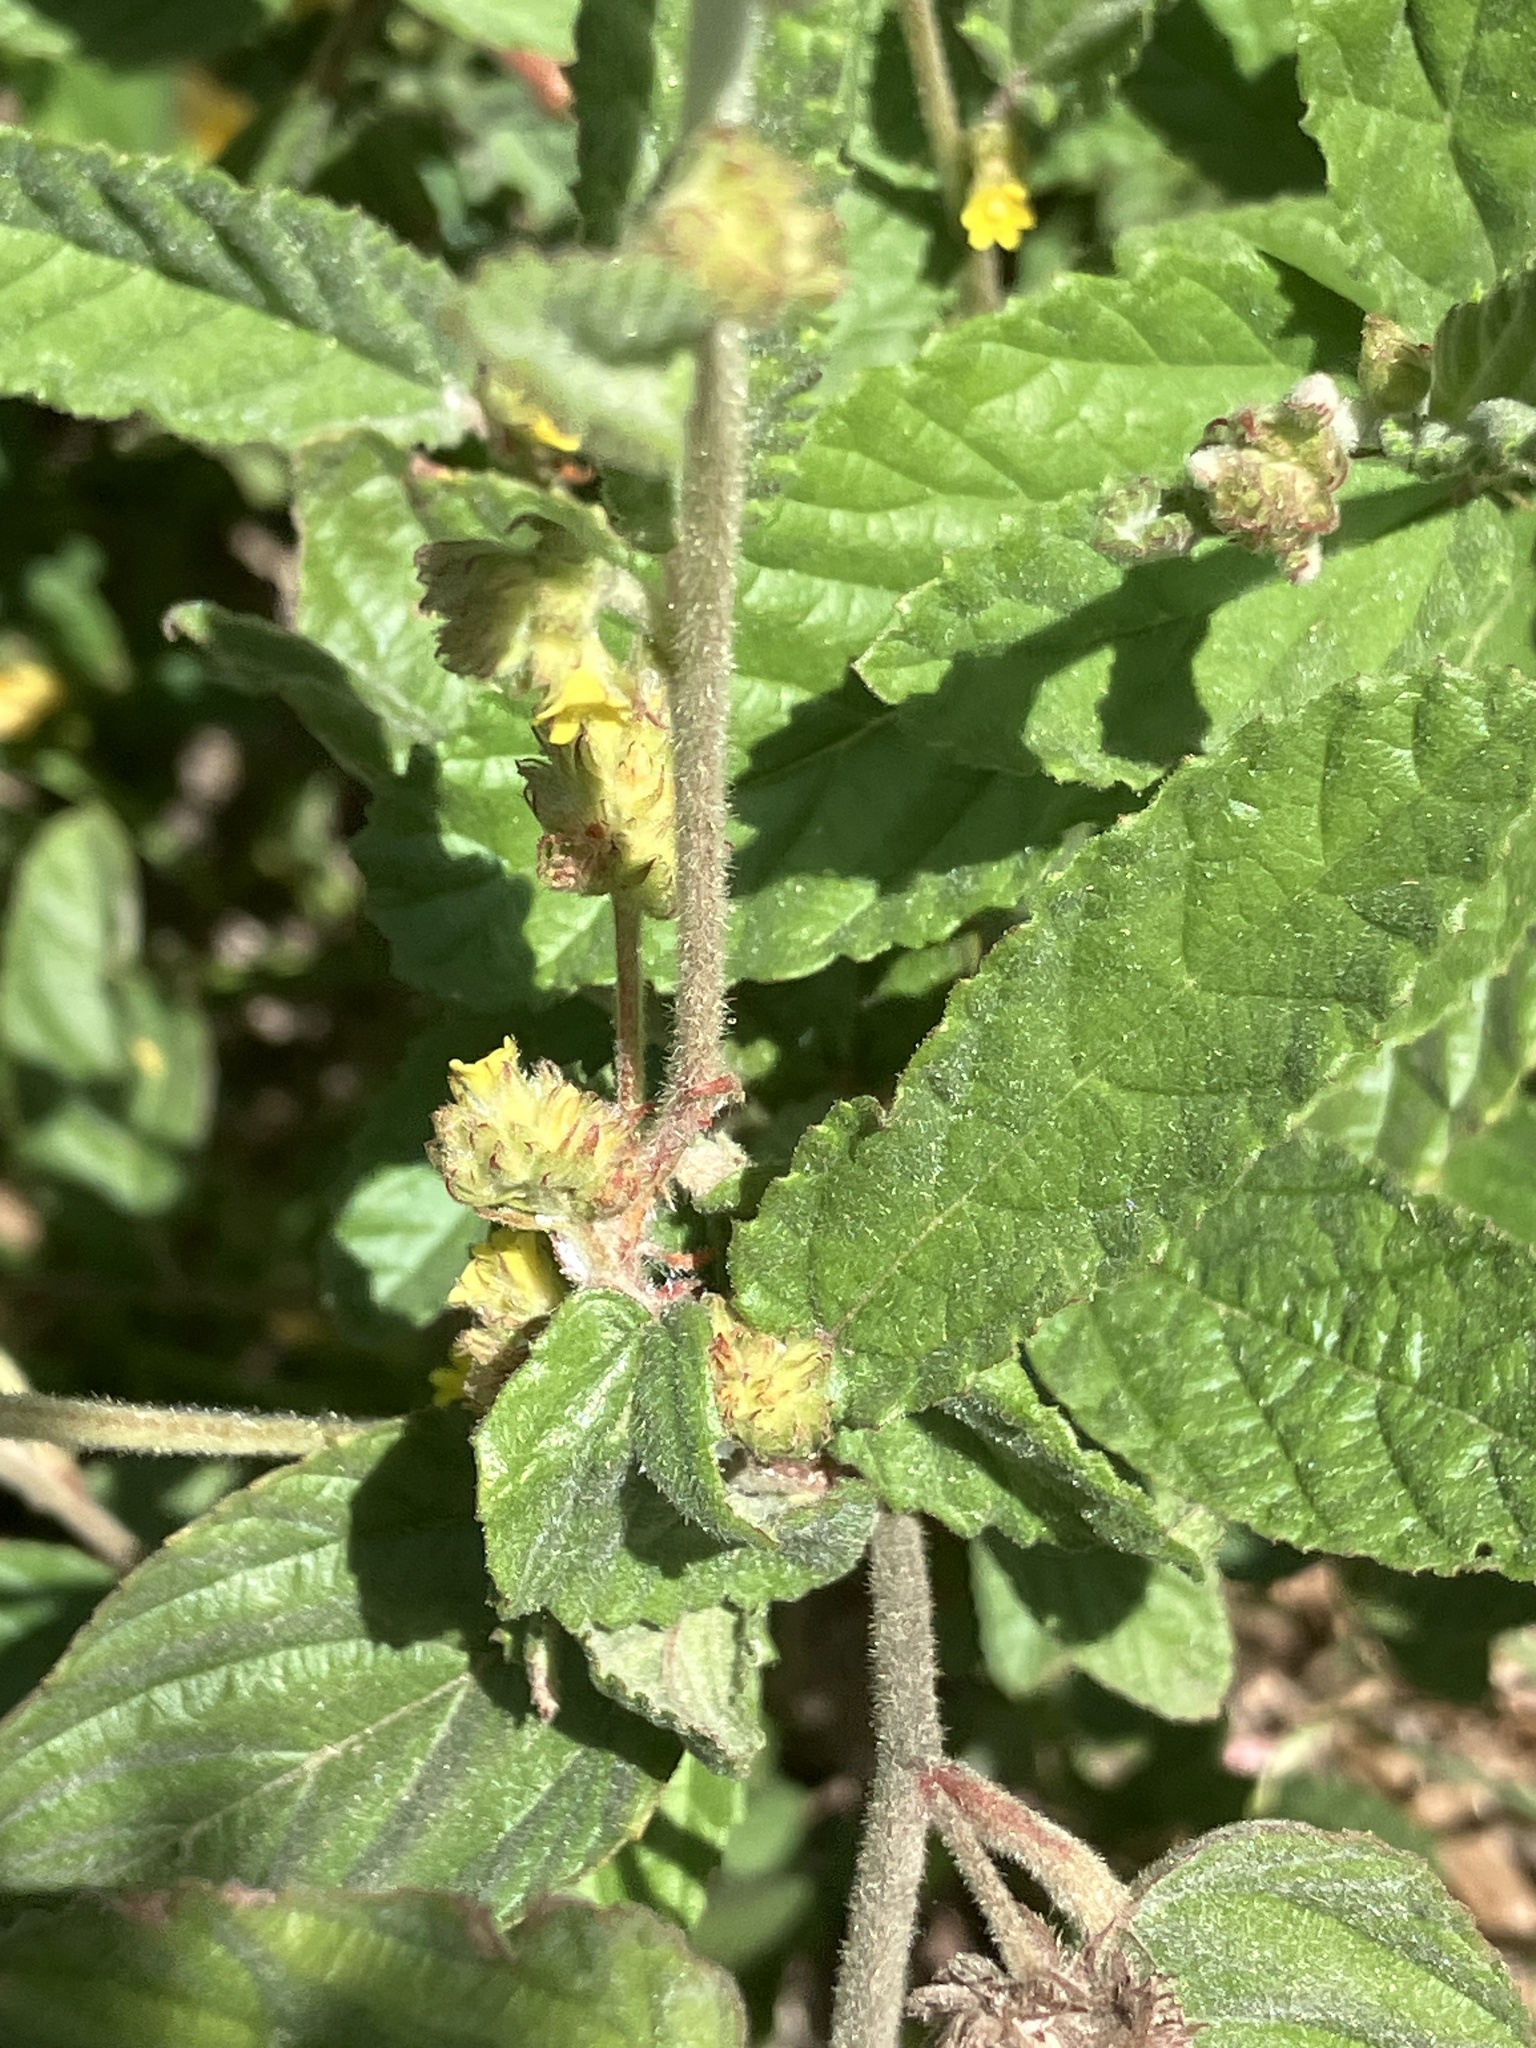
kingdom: Plantae
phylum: Tracheophyta
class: Magnoliopsida
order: Malvales
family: Malvaceae
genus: Waltheria
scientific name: Waltheria indica
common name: Leather-coat
